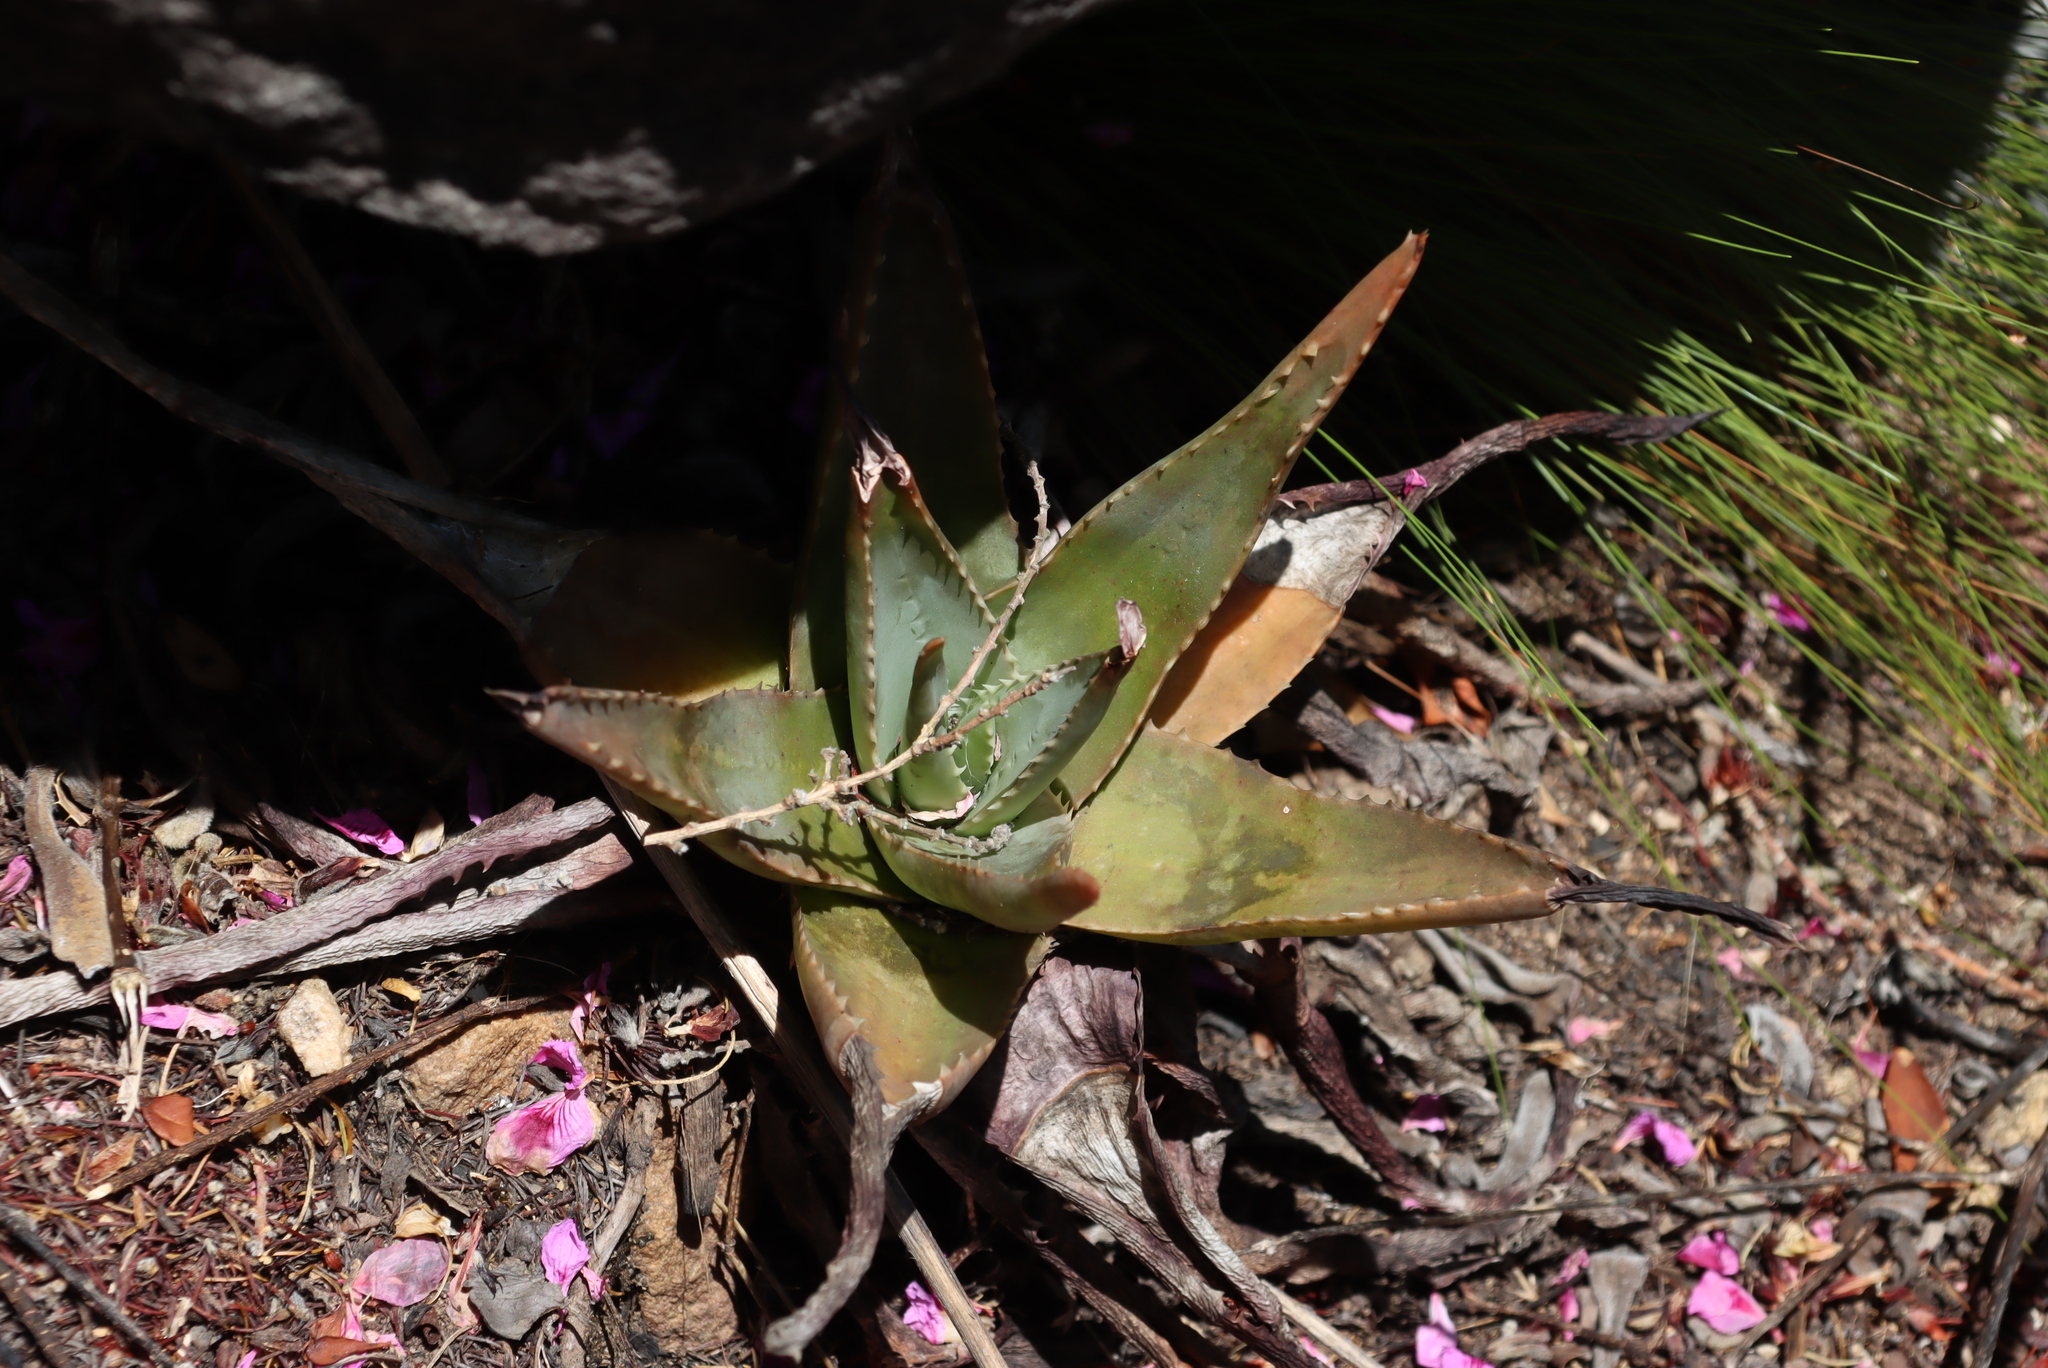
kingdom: Plantae
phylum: Tracheophyta
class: Liliopsida
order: Asparagales
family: Asphodelaceae
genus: Aloe
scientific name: Aloe succotrina
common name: Bombay aloe
